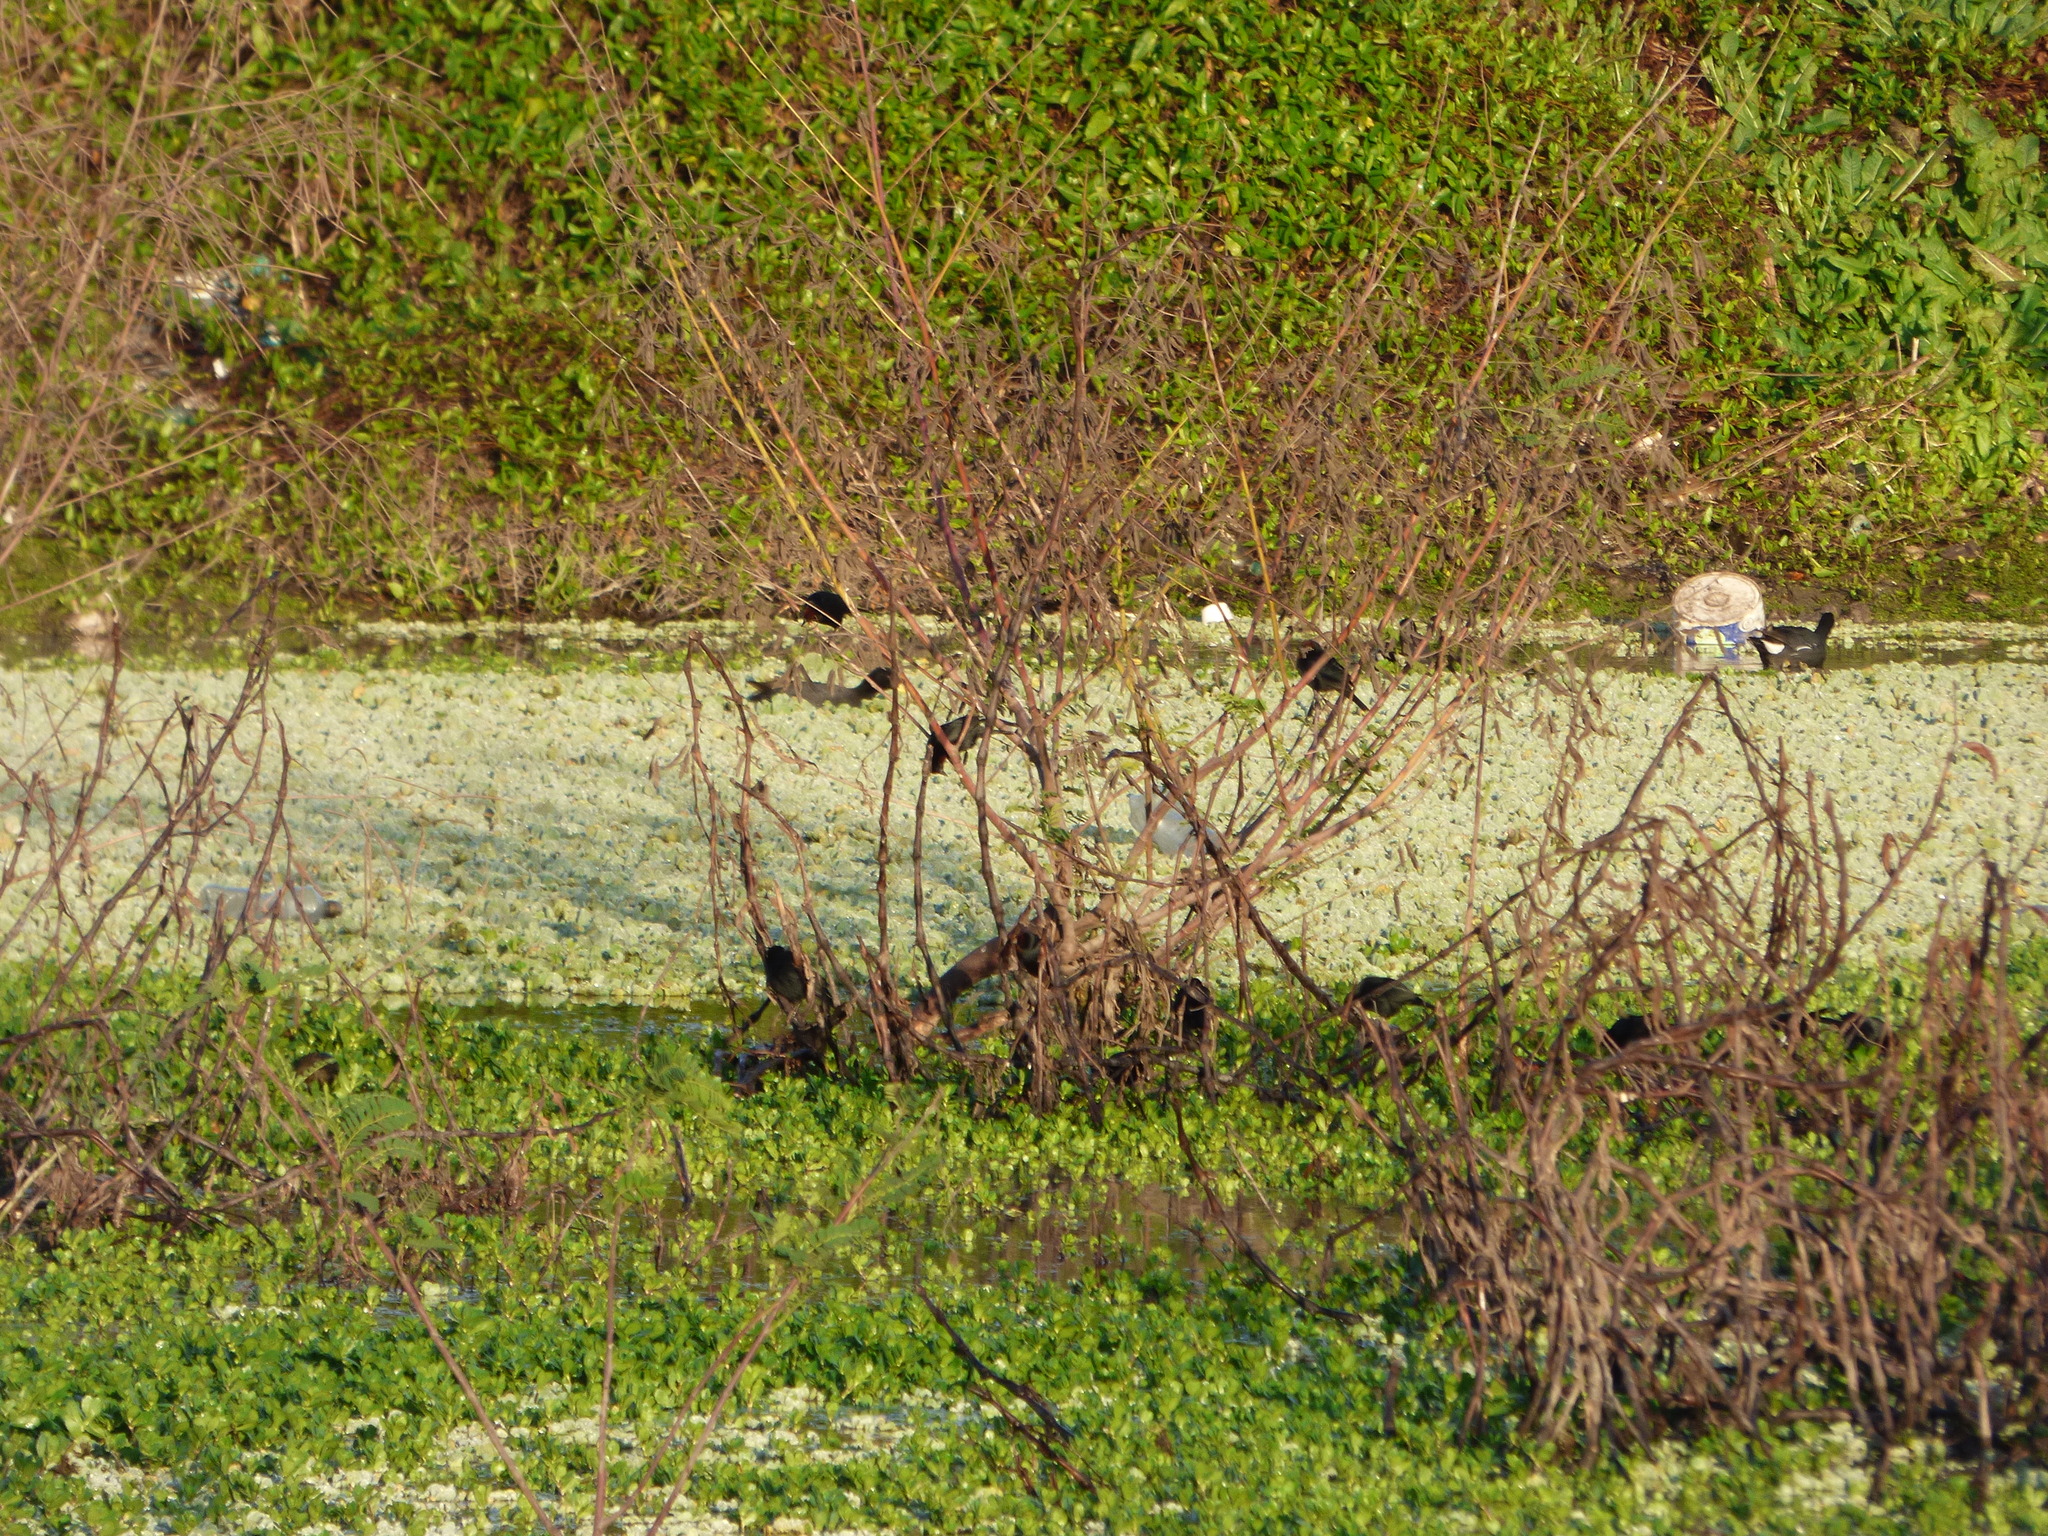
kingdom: Animalia
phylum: Chordata
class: Aves
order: Passeriformes
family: Icteridae
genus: Chrysomus
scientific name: Chrysomus ruficapillus
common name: Chestnut-capped blackbird
